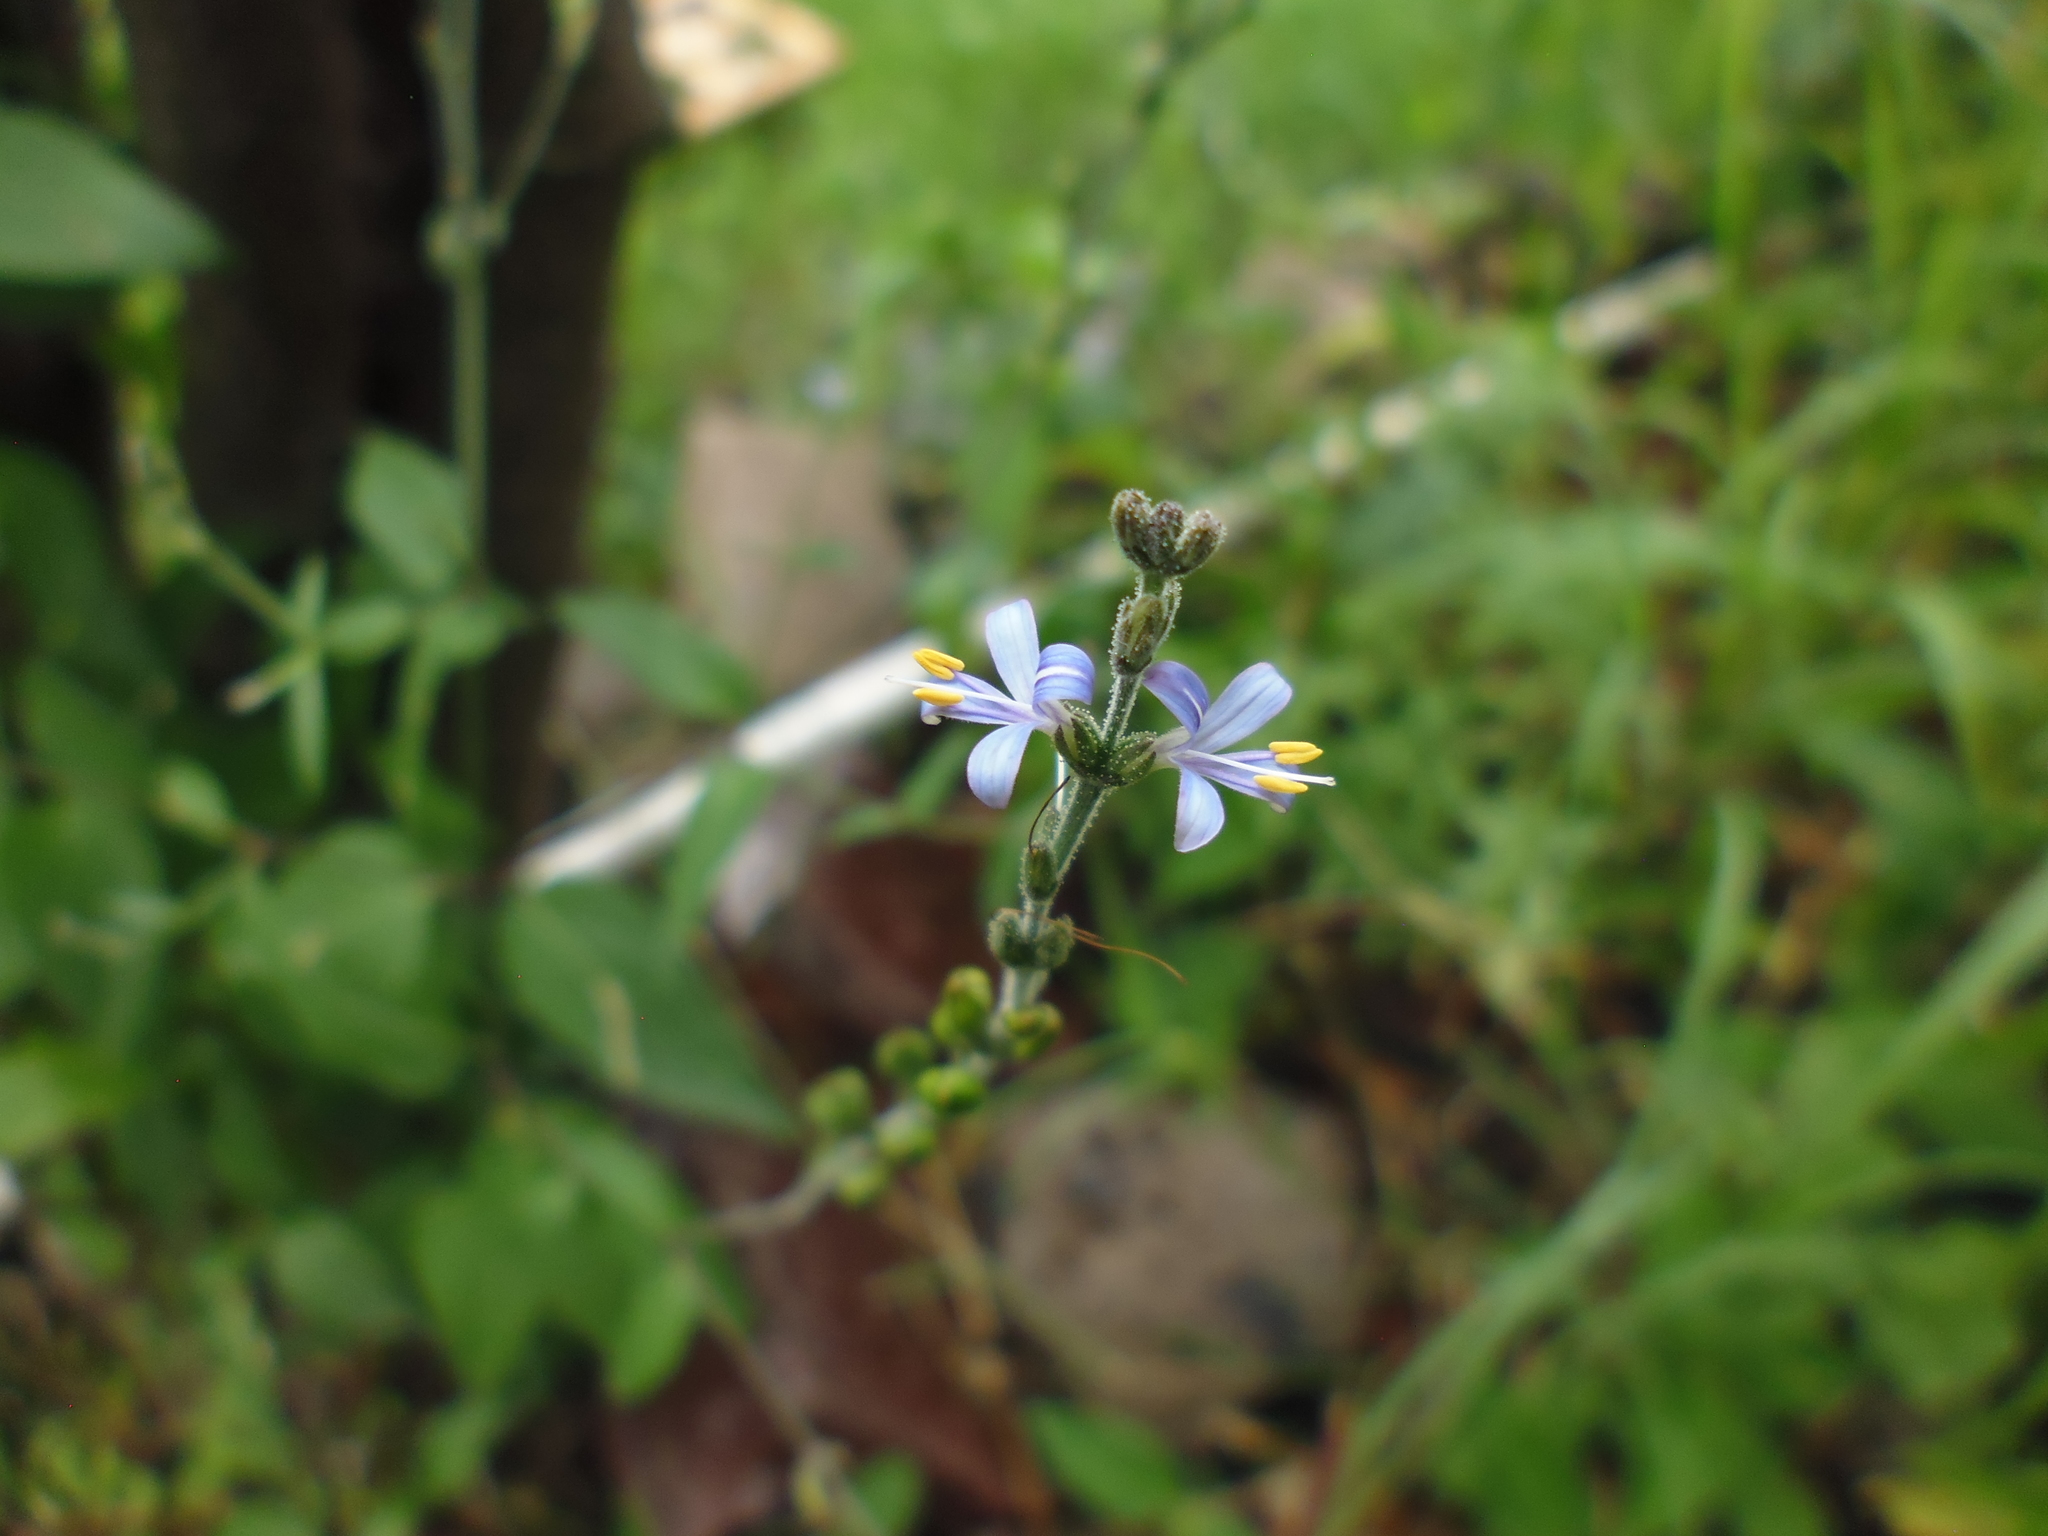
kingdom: Plantae
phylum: Tracheophyta
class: Magnoliopsida
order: Lamiales
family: Acanthaceae
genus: Carlowrightia
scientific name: Carlowrightia parviflora
